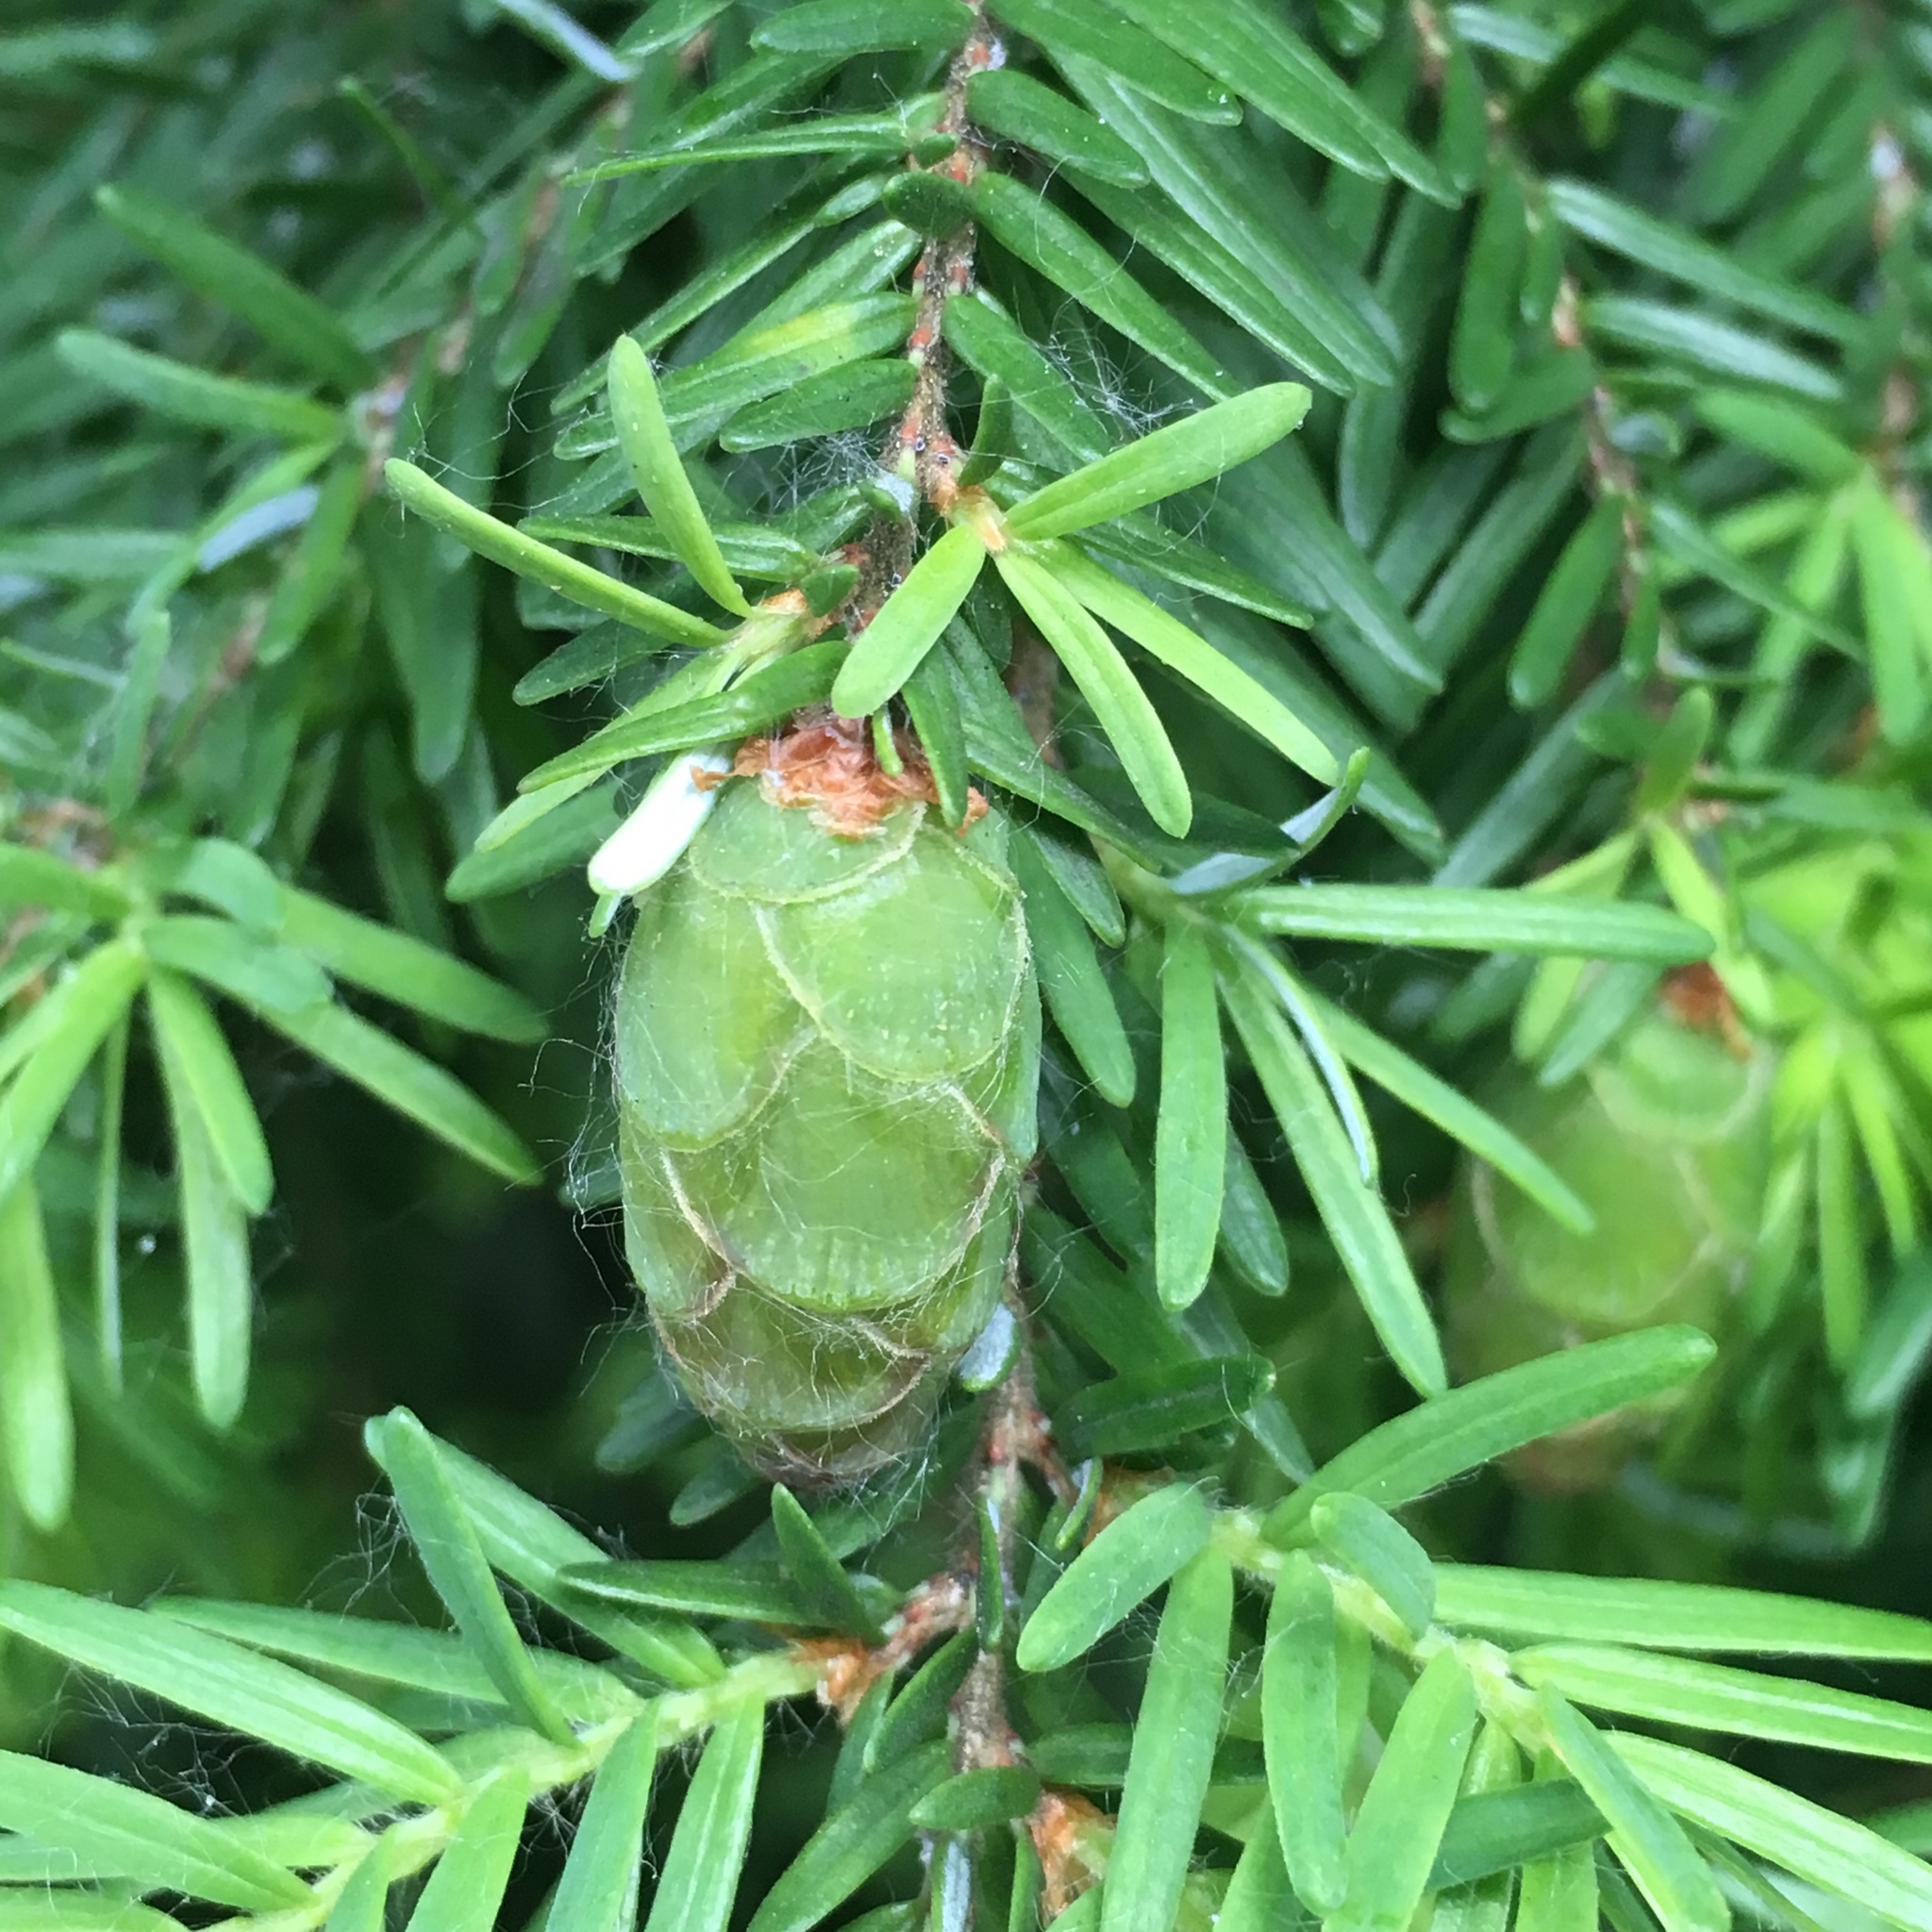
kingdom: Plantae
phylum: Tracheophyta
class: Pinopsida
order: Pinales
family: Pinaceae
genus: Tsuga
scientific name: Tsuga heterophylla
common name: Western hemlock
